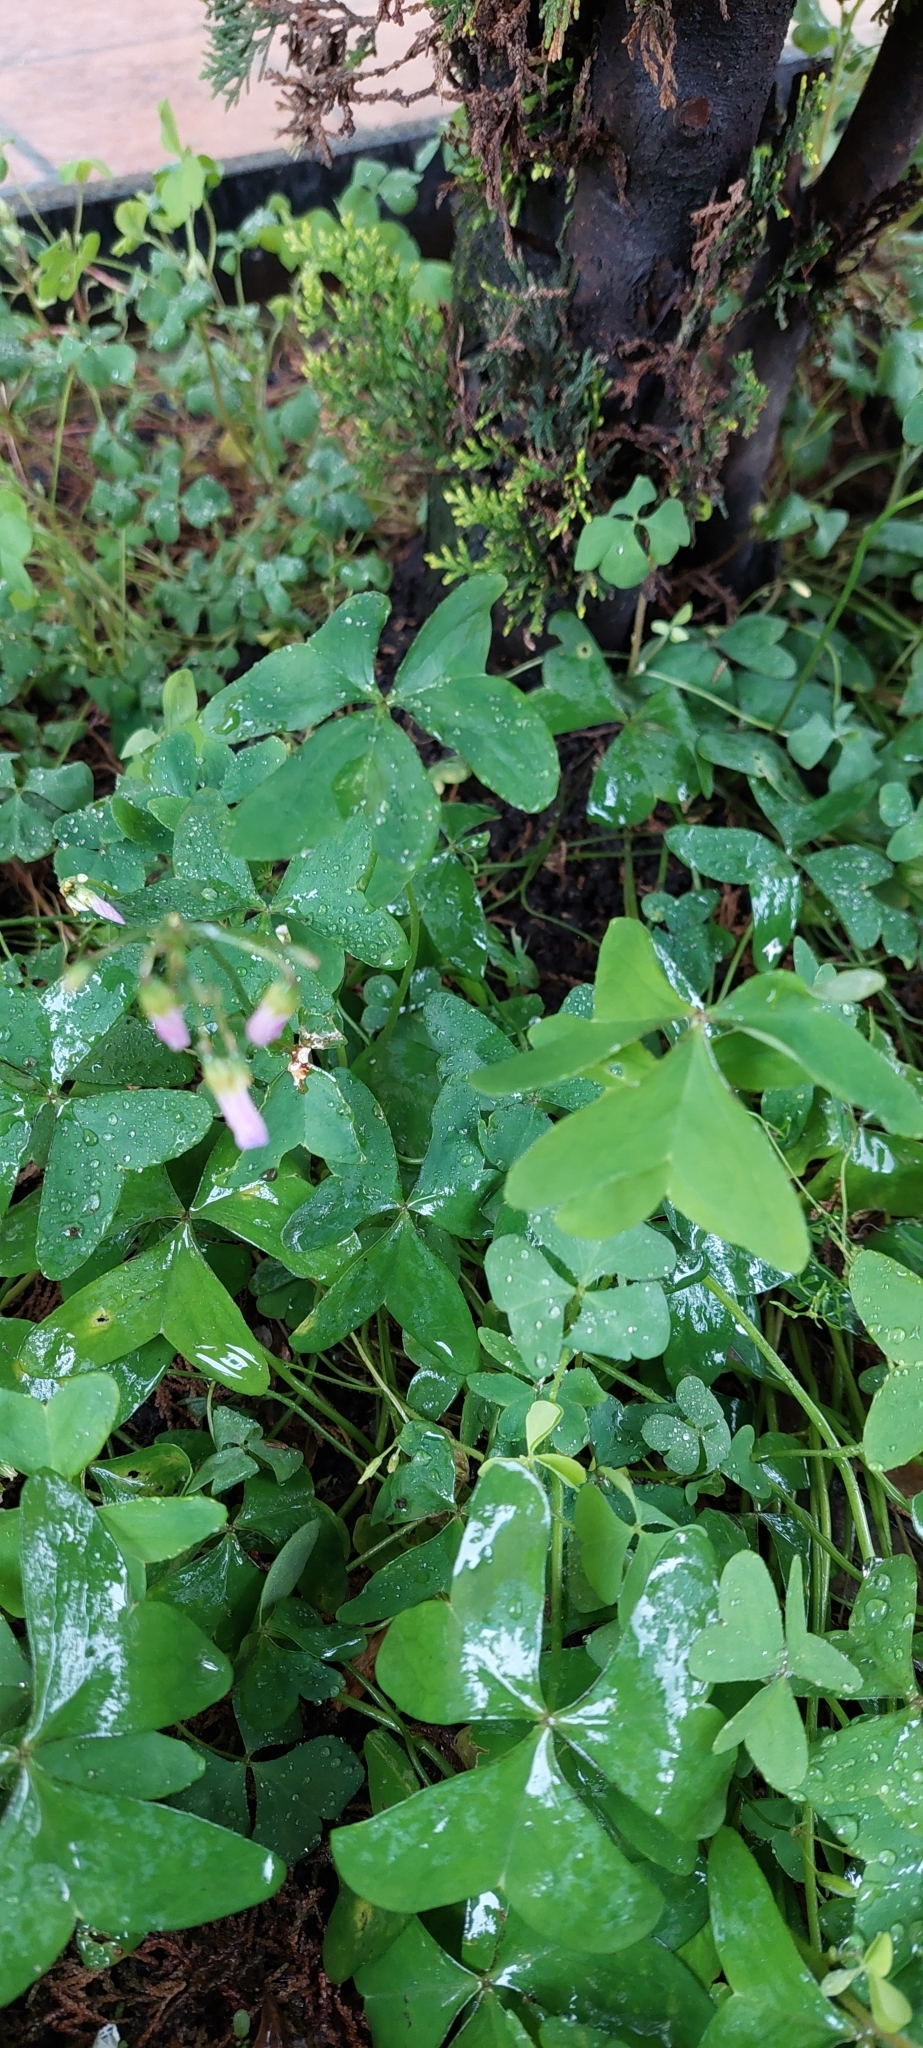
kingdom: Plantae
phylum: Tracheophyta
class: Magnoliopsida
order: Oxalidales
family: Oxalidaceae
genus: Oxalis
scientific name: Oxalis latifolia
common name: Garden pink-sorrel
